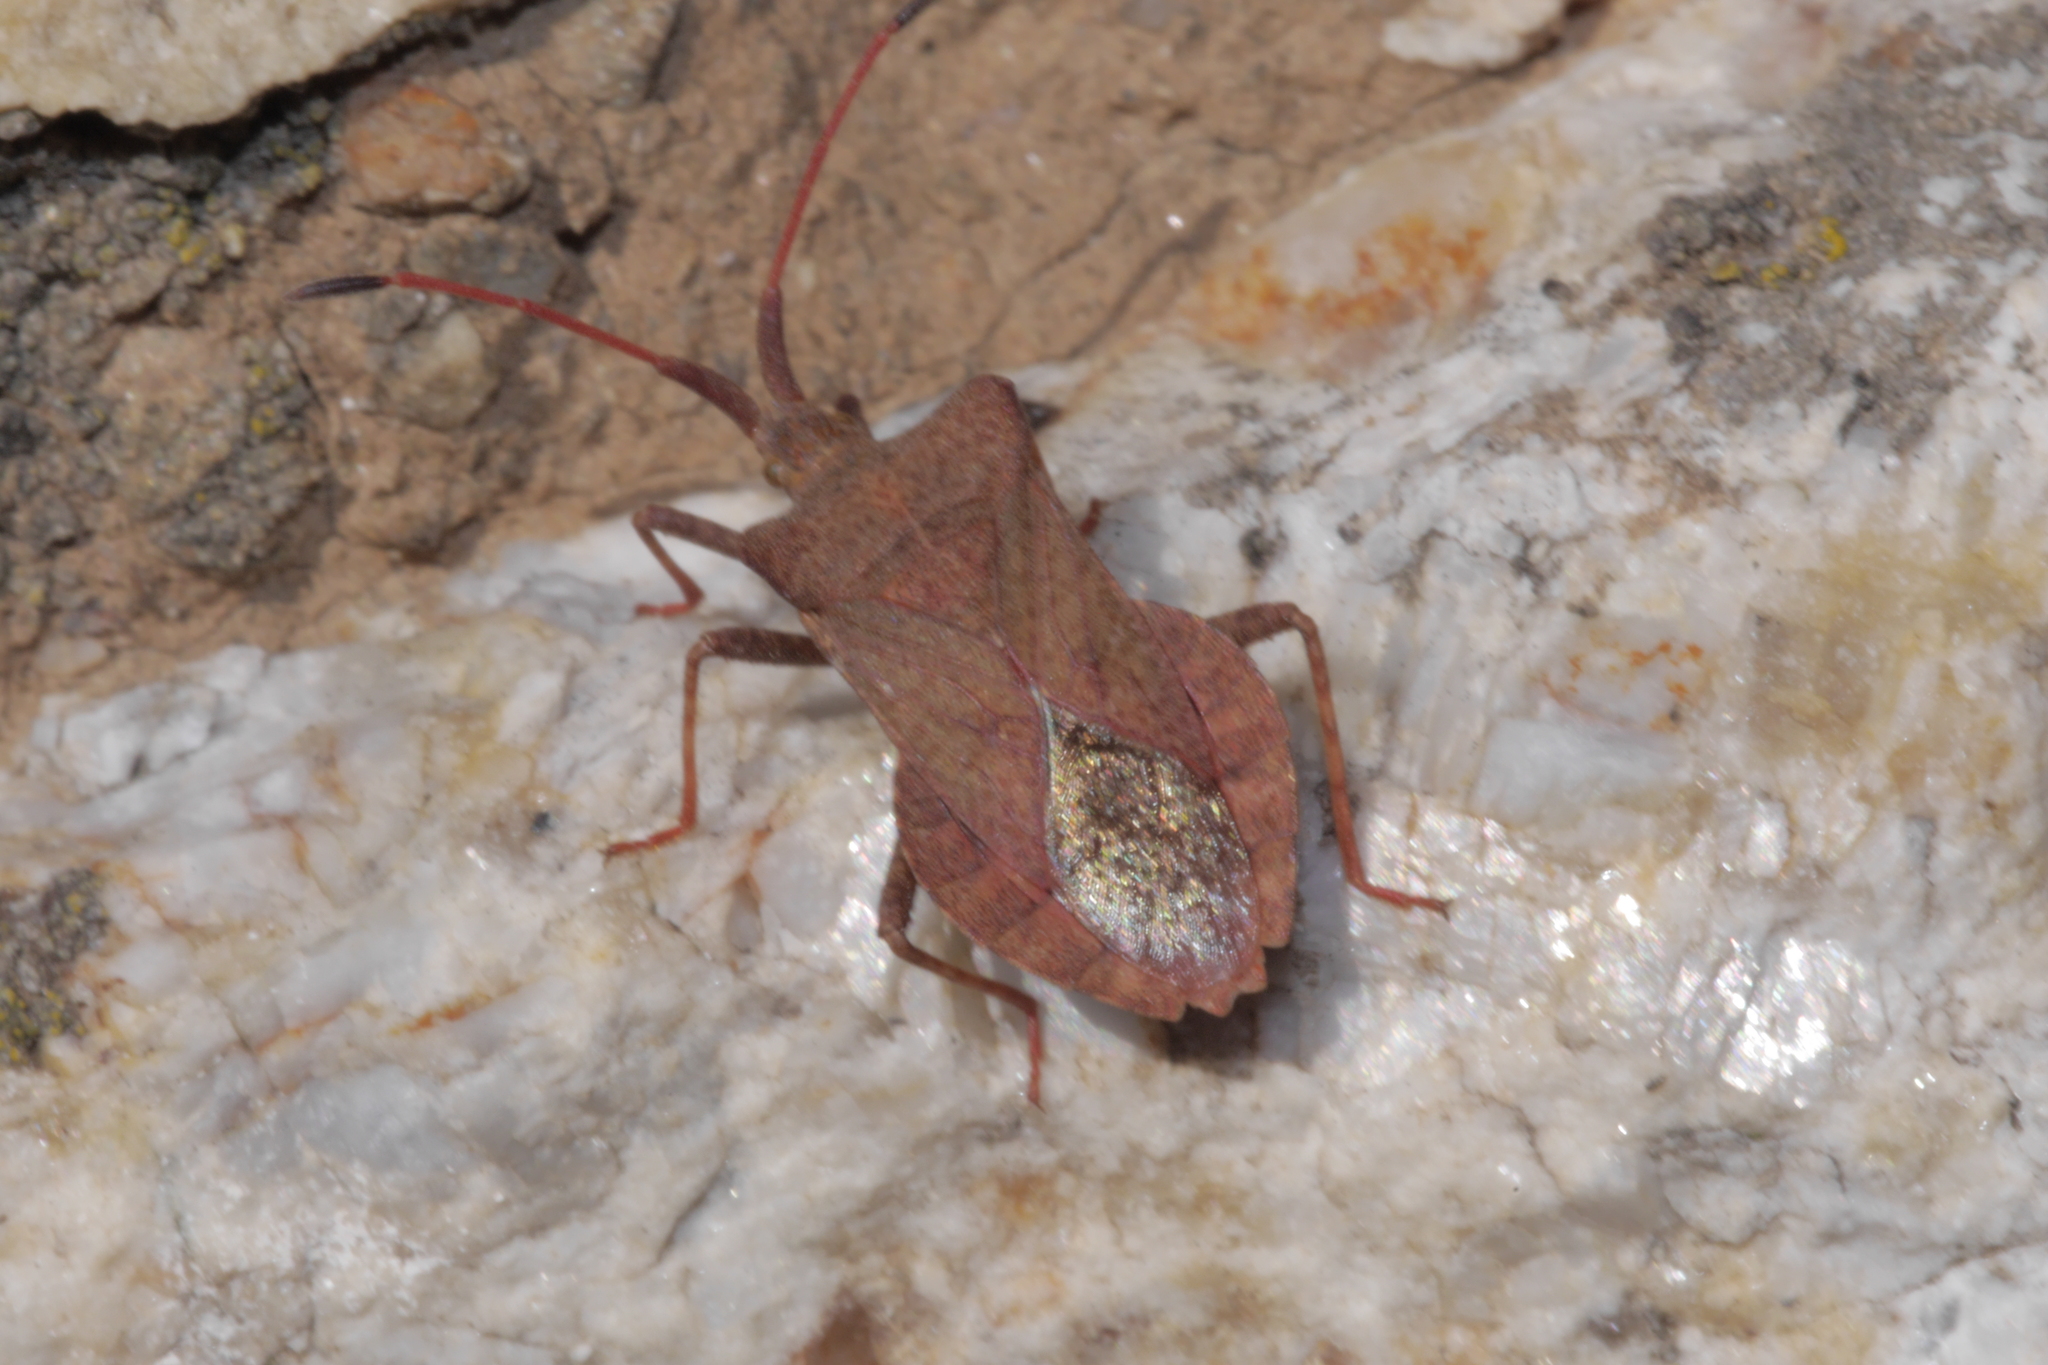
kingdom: Animalia
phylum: Arthropoda
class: Insecta
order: Hemiptera
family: Coreidae
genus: Coreus
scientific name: Coreus marginatus
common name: Dock bug
